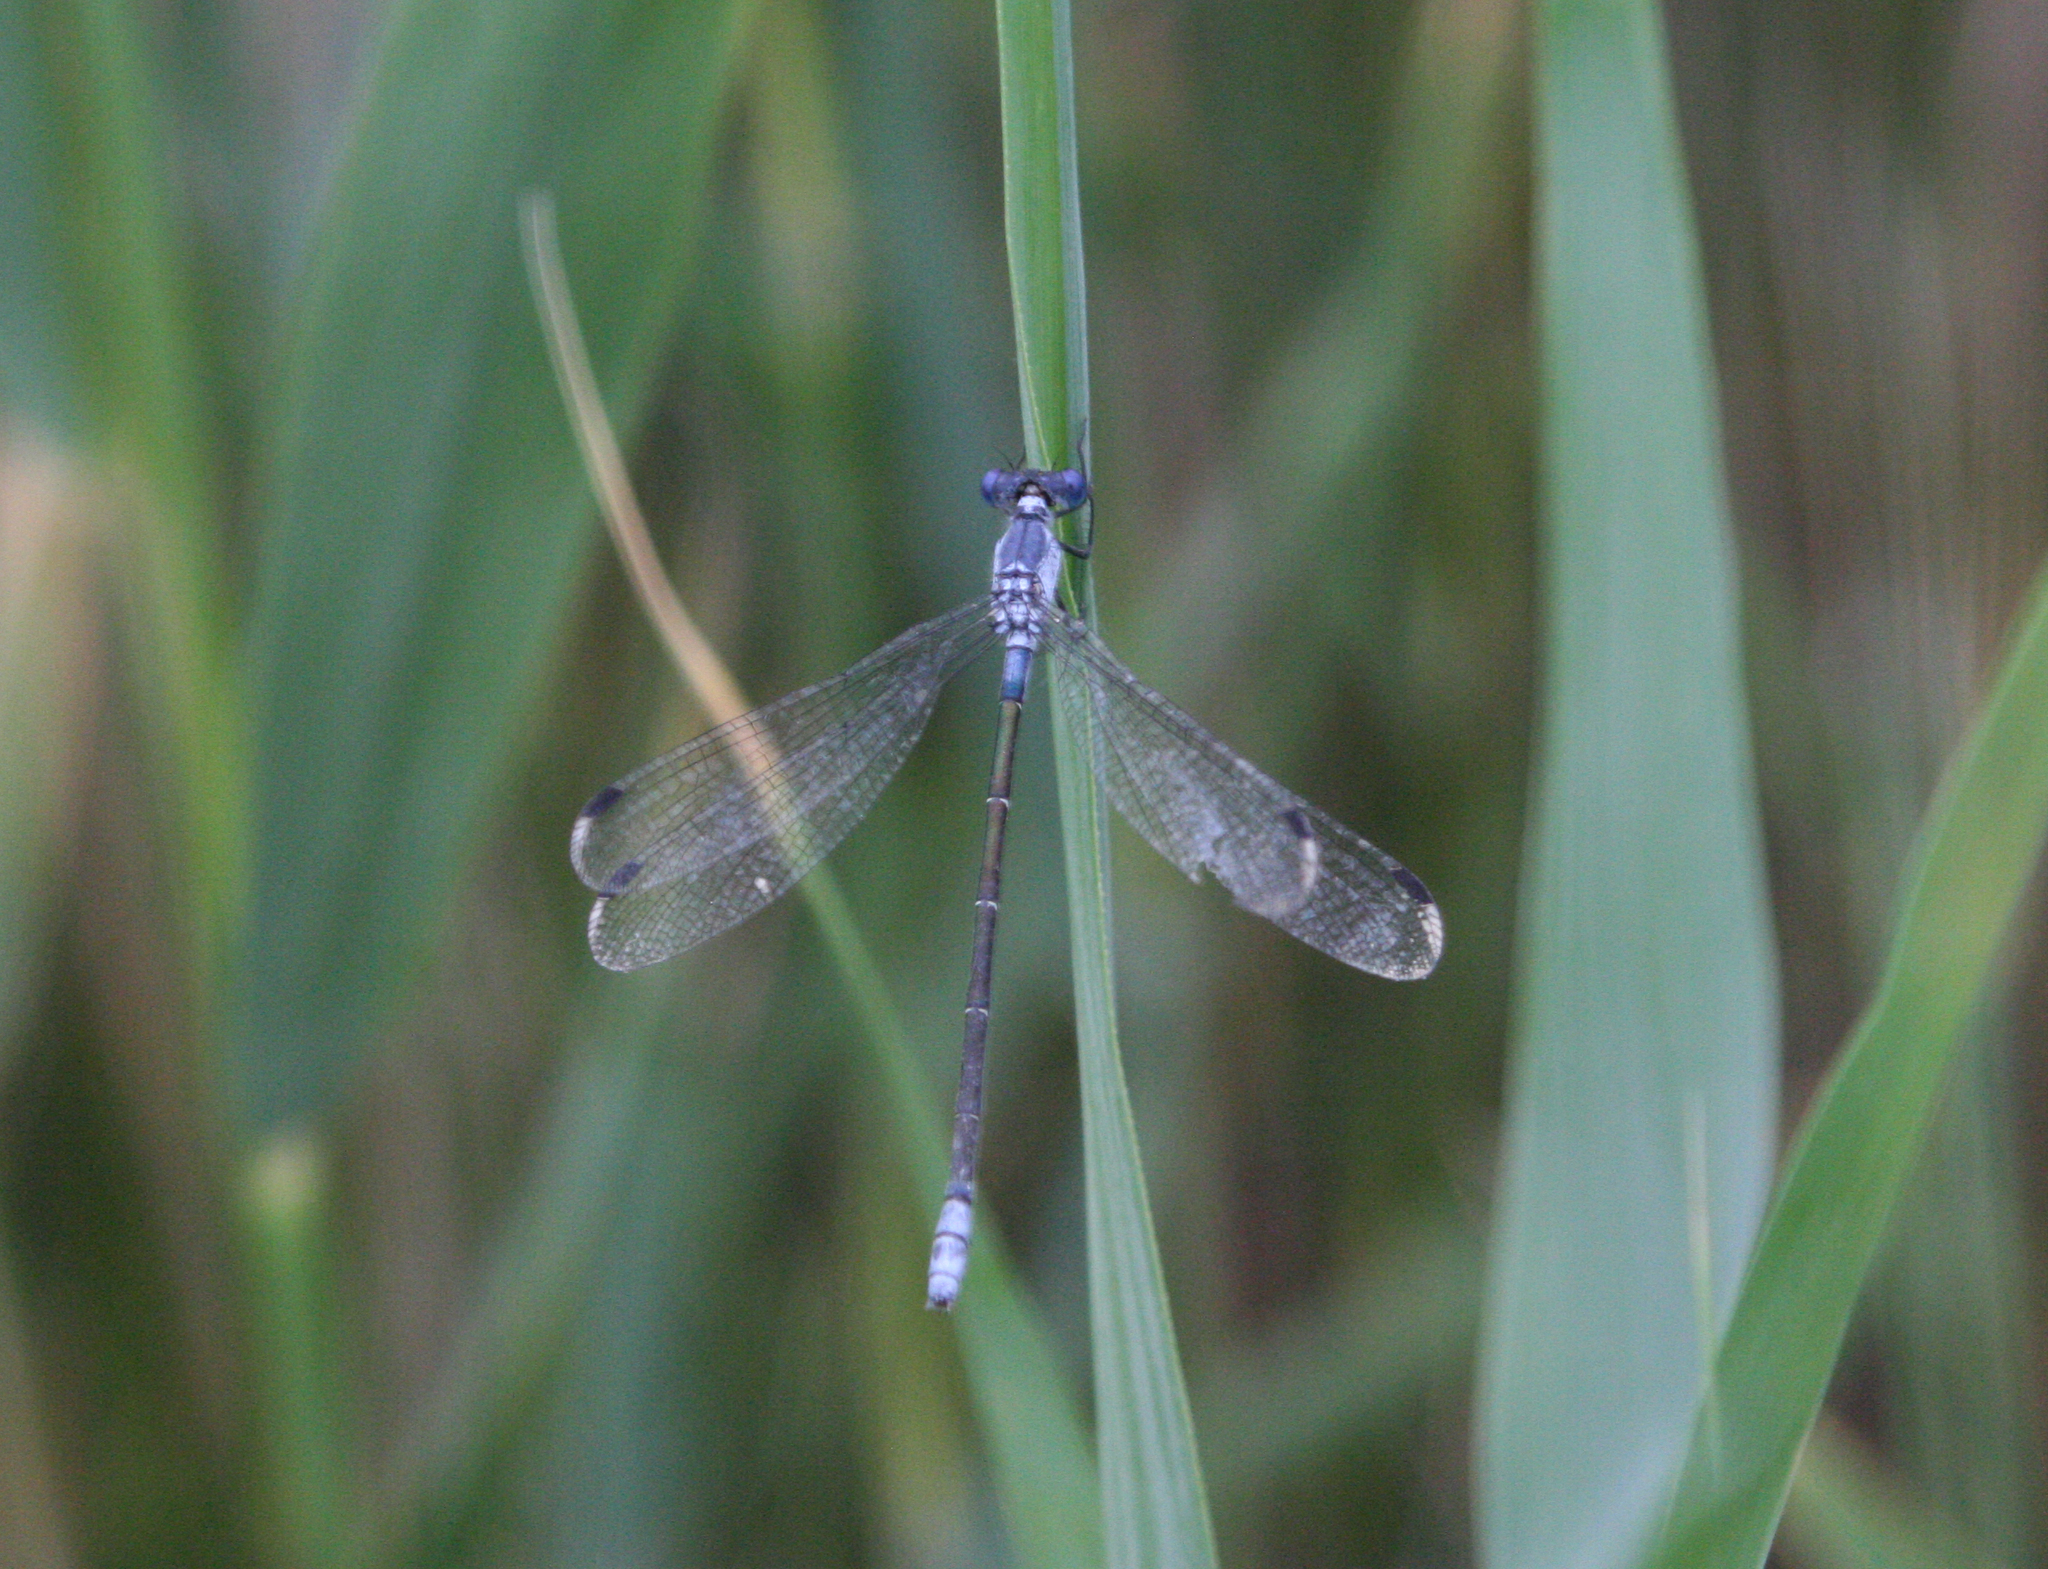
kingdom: Animalia
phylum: Arthropoda
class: Insecta
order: Odonata
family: Lestidae
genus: Lestes
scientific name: Lestes macrostigma
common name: Dark spreadwing
